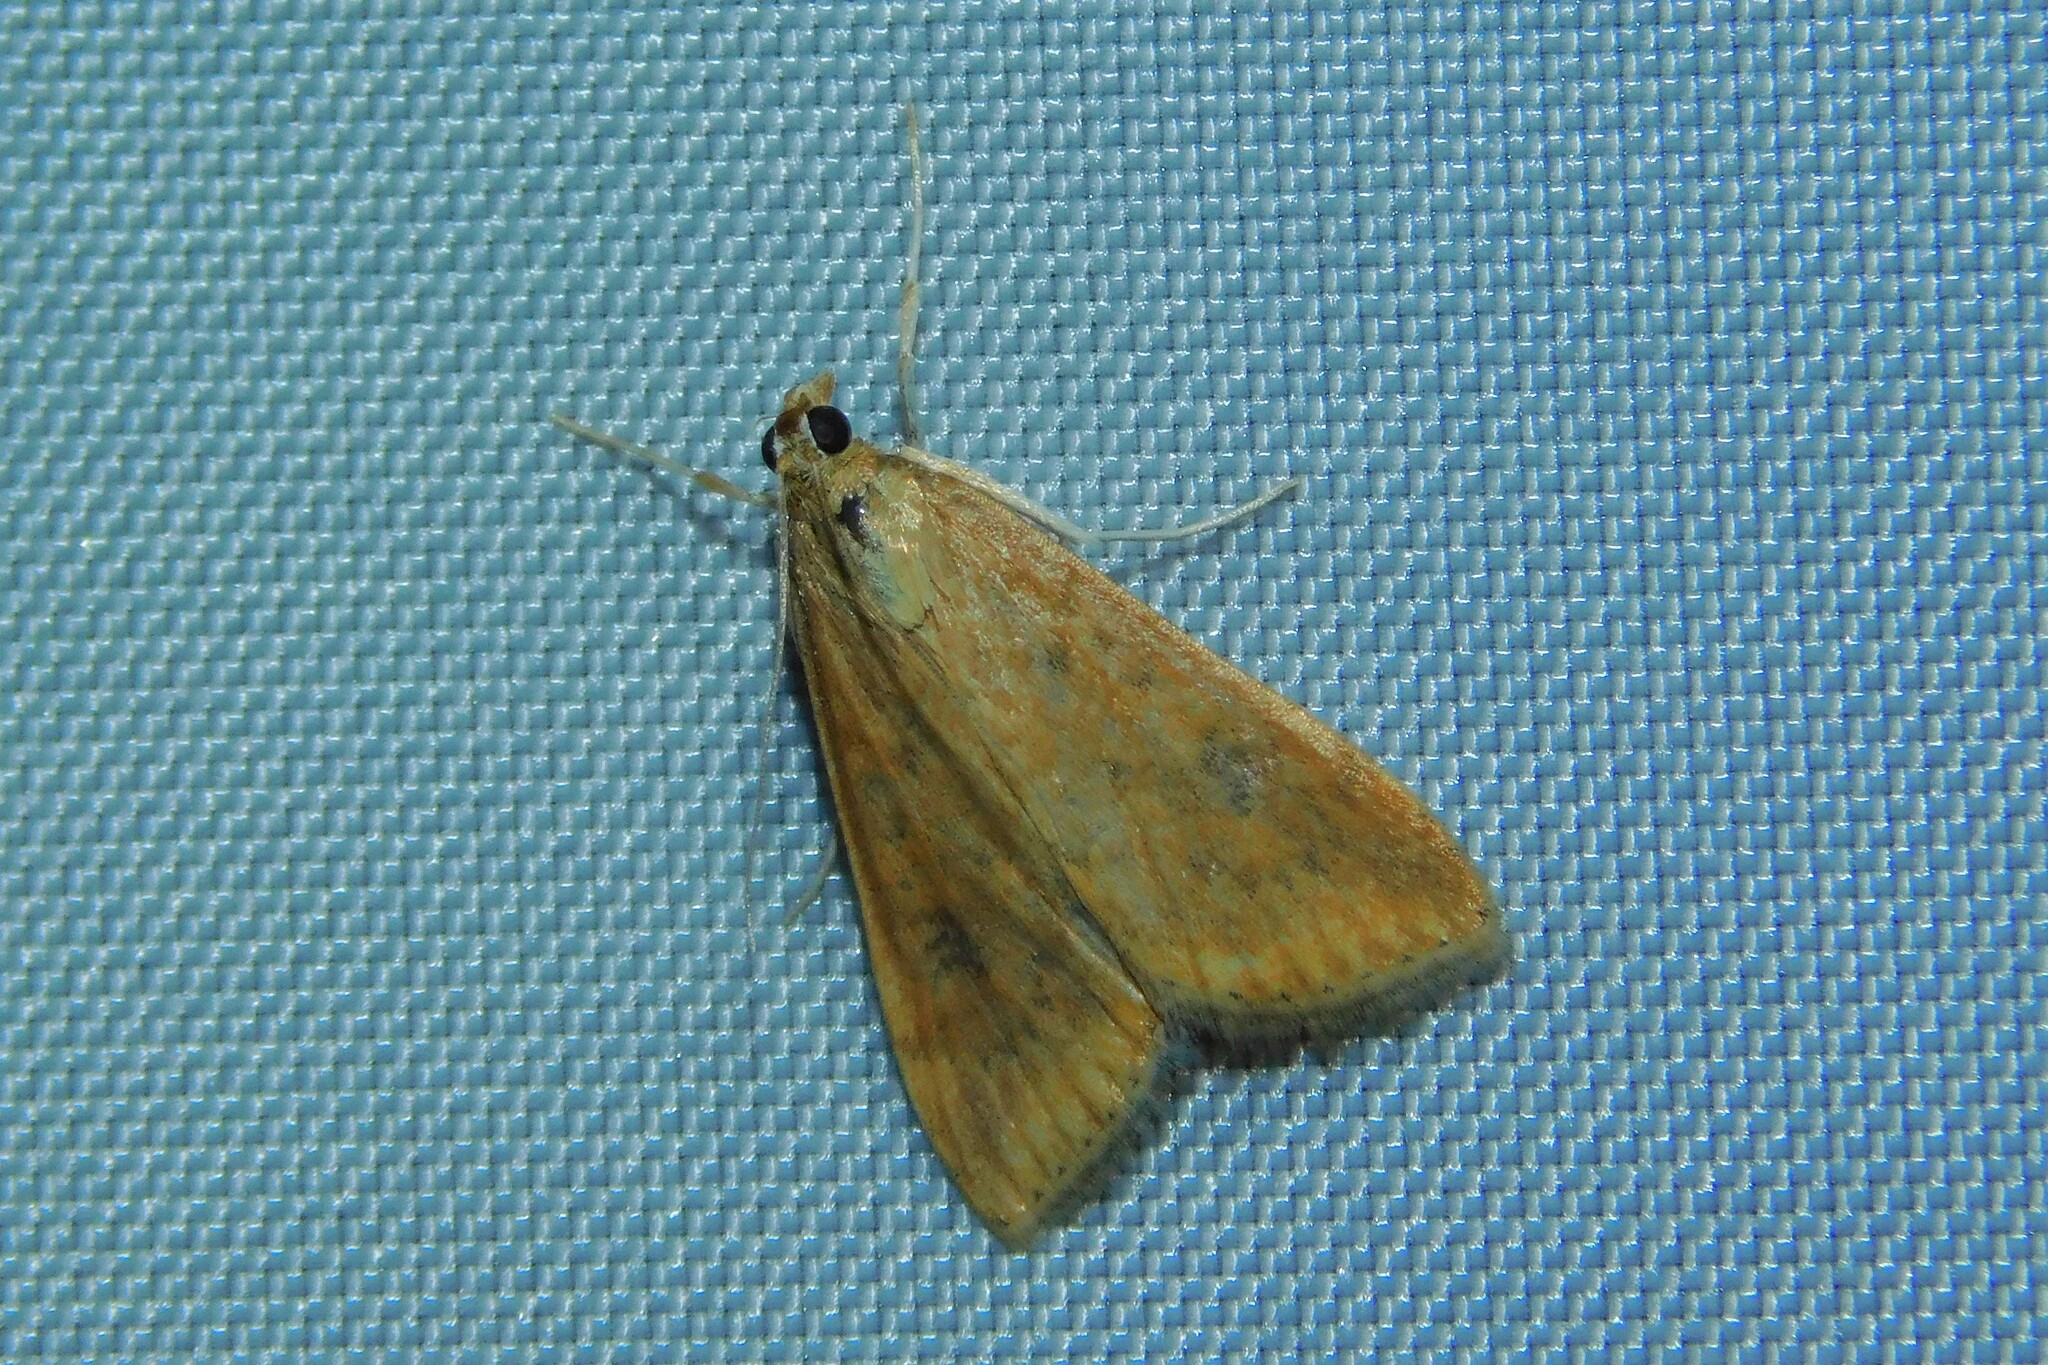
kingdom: Animalia
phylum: Arthropoda
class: Insecta
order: Lepidoptera
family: Crambidae
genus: Udea
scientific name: Udea ferrugalis
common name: Rusty dot
